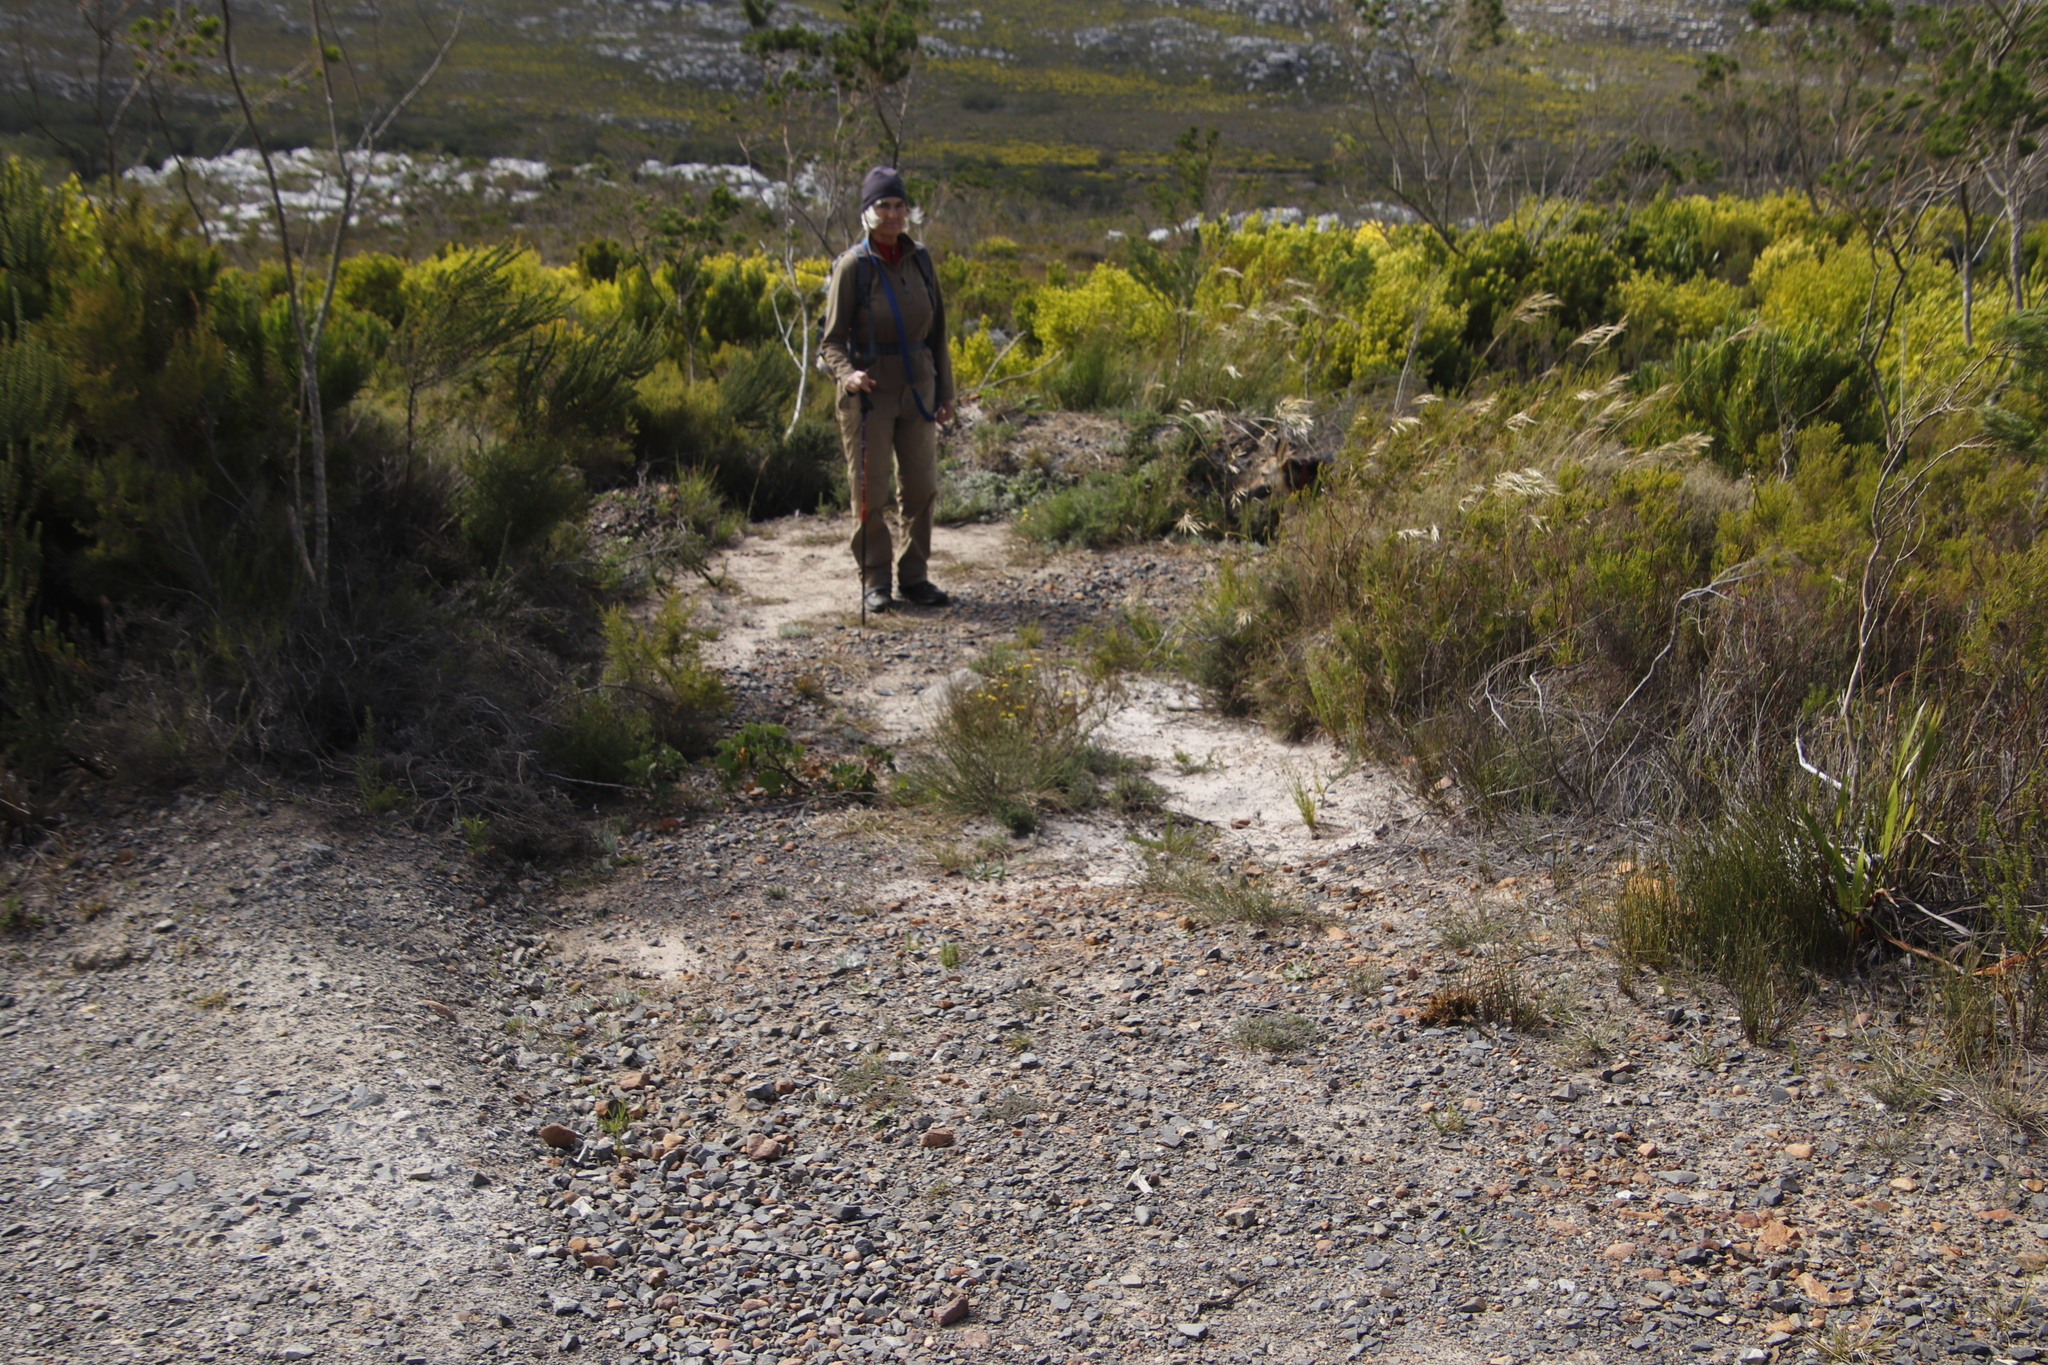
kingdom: Plantae
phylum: Tracheophyta
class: Magnoliopsida
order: Lamiales
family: Plantaginaceae
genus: Plantago
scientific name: Plantago lanceolata
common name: Ribwort plantain
